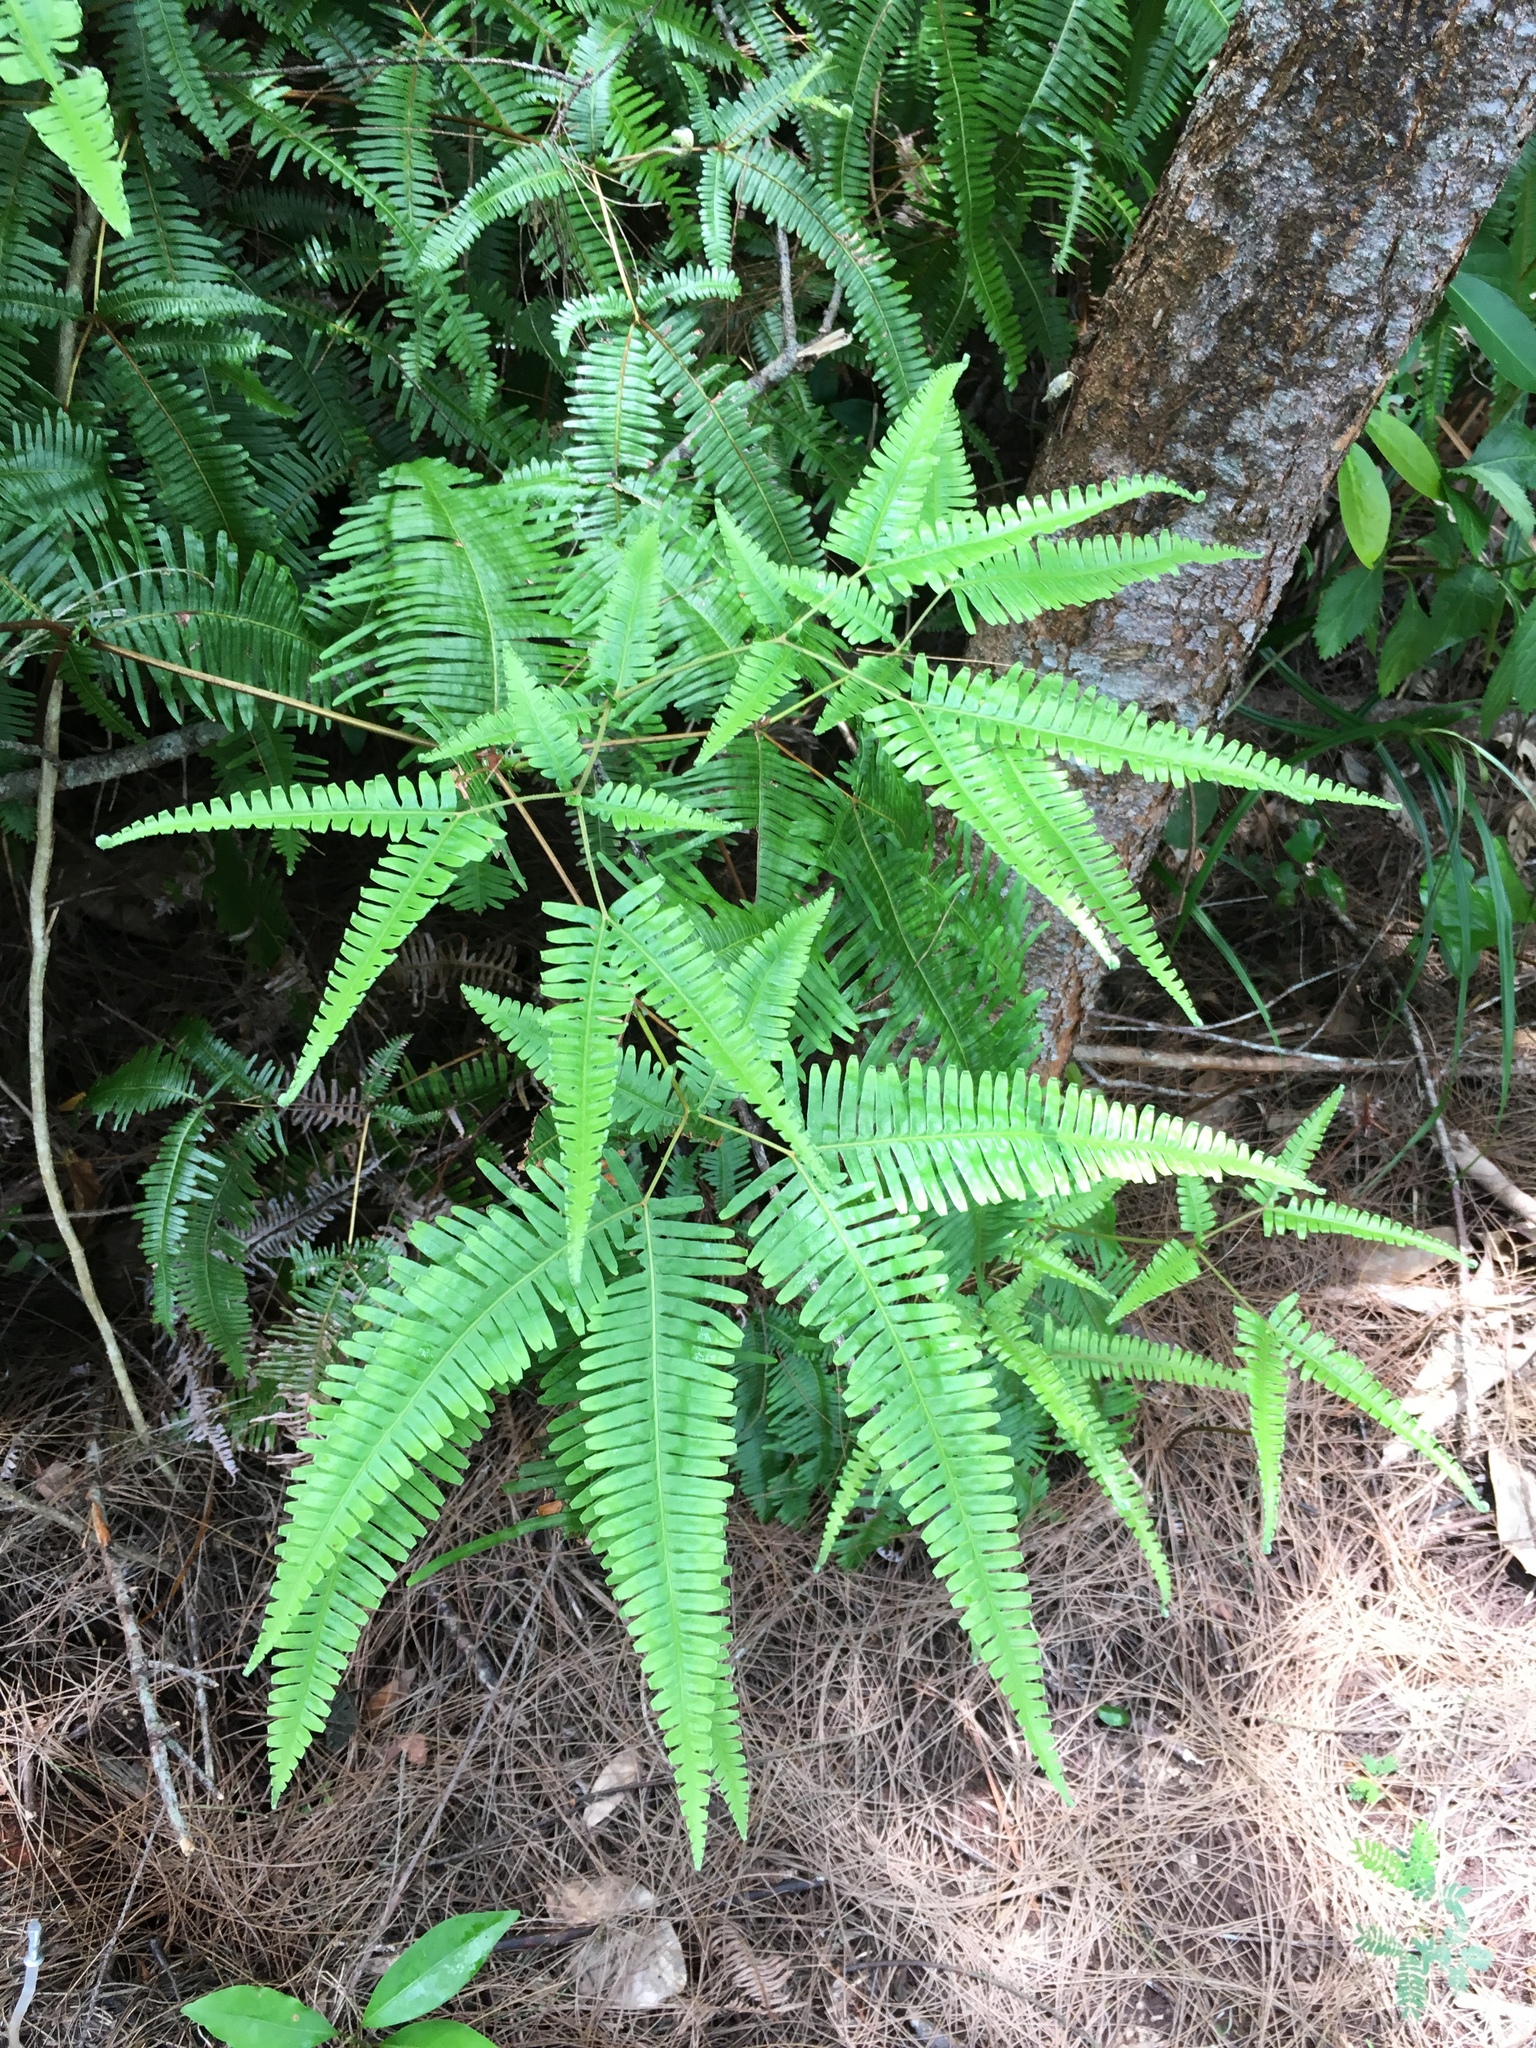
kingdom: Plantae
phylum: Tracheophyta
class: Polypodiopsida
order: Gleicheniales
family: Gleicheniaceae
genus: Dicranopteris
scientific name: Dicranopteris linearis
